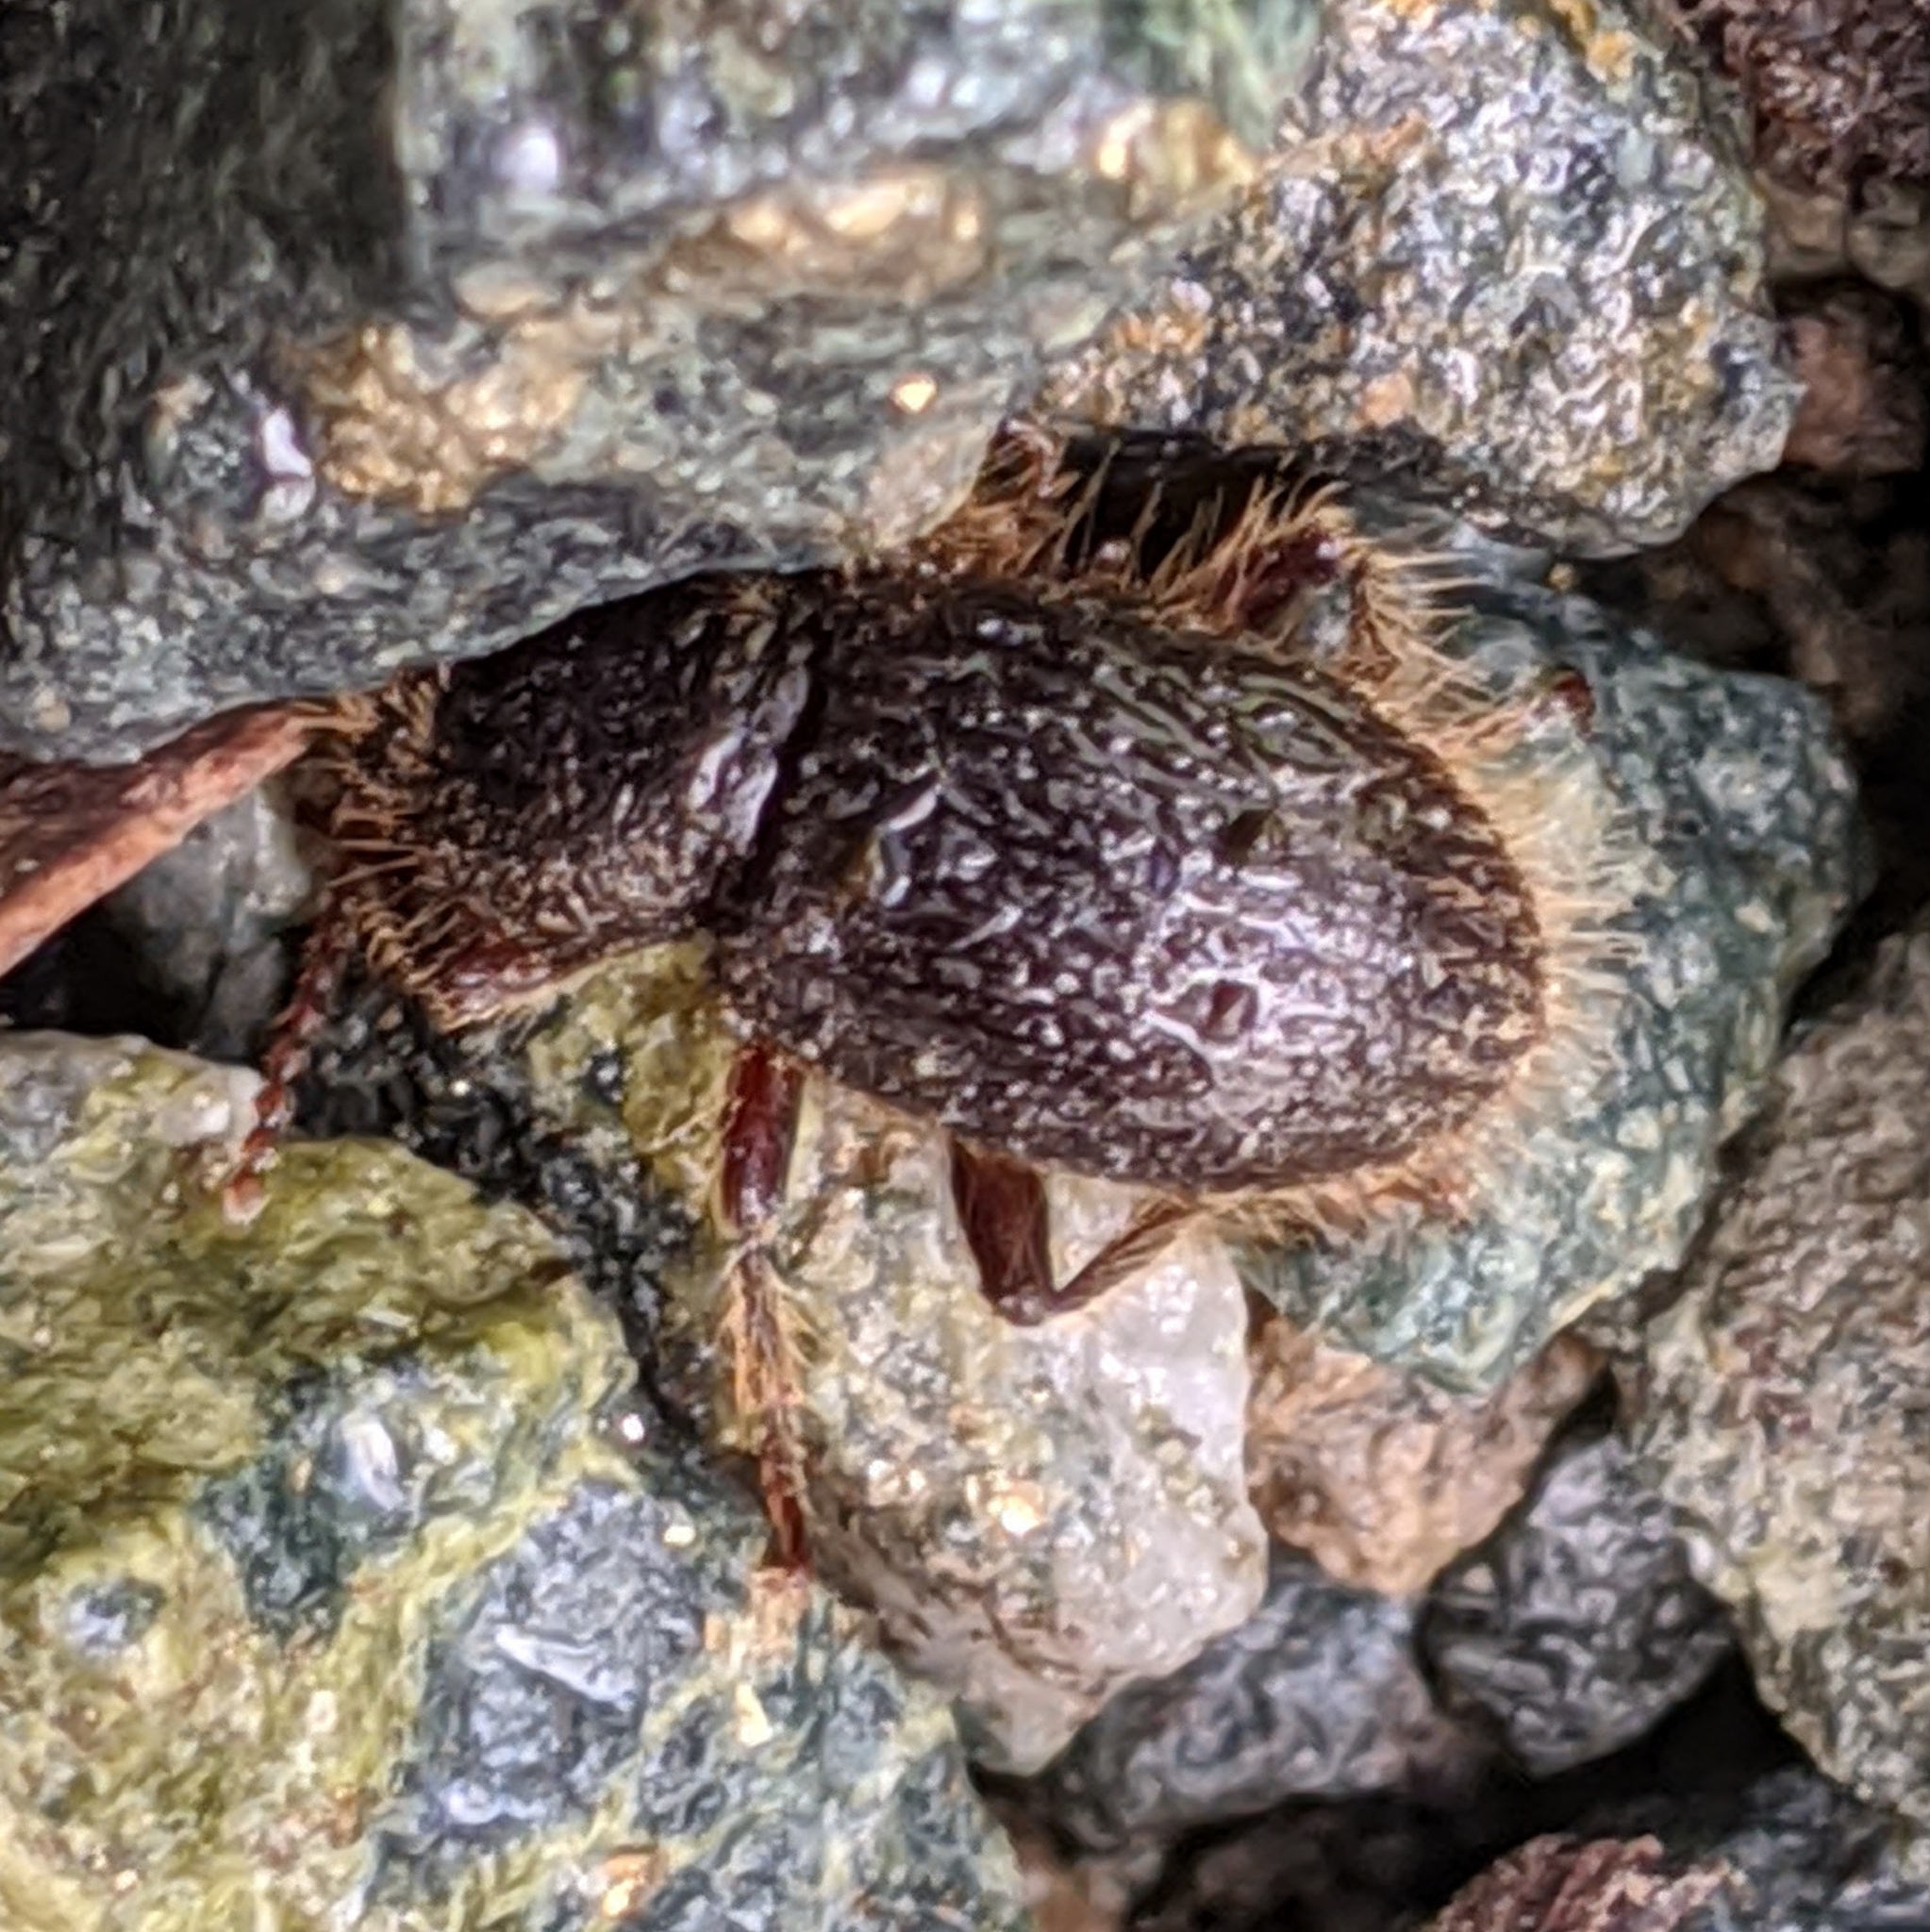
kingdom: Animalia
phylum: Arthropoda
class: Insecta
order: Coleoptera
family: Tenebrionidae
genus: Eleodes
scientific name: Eleodes littoralis
